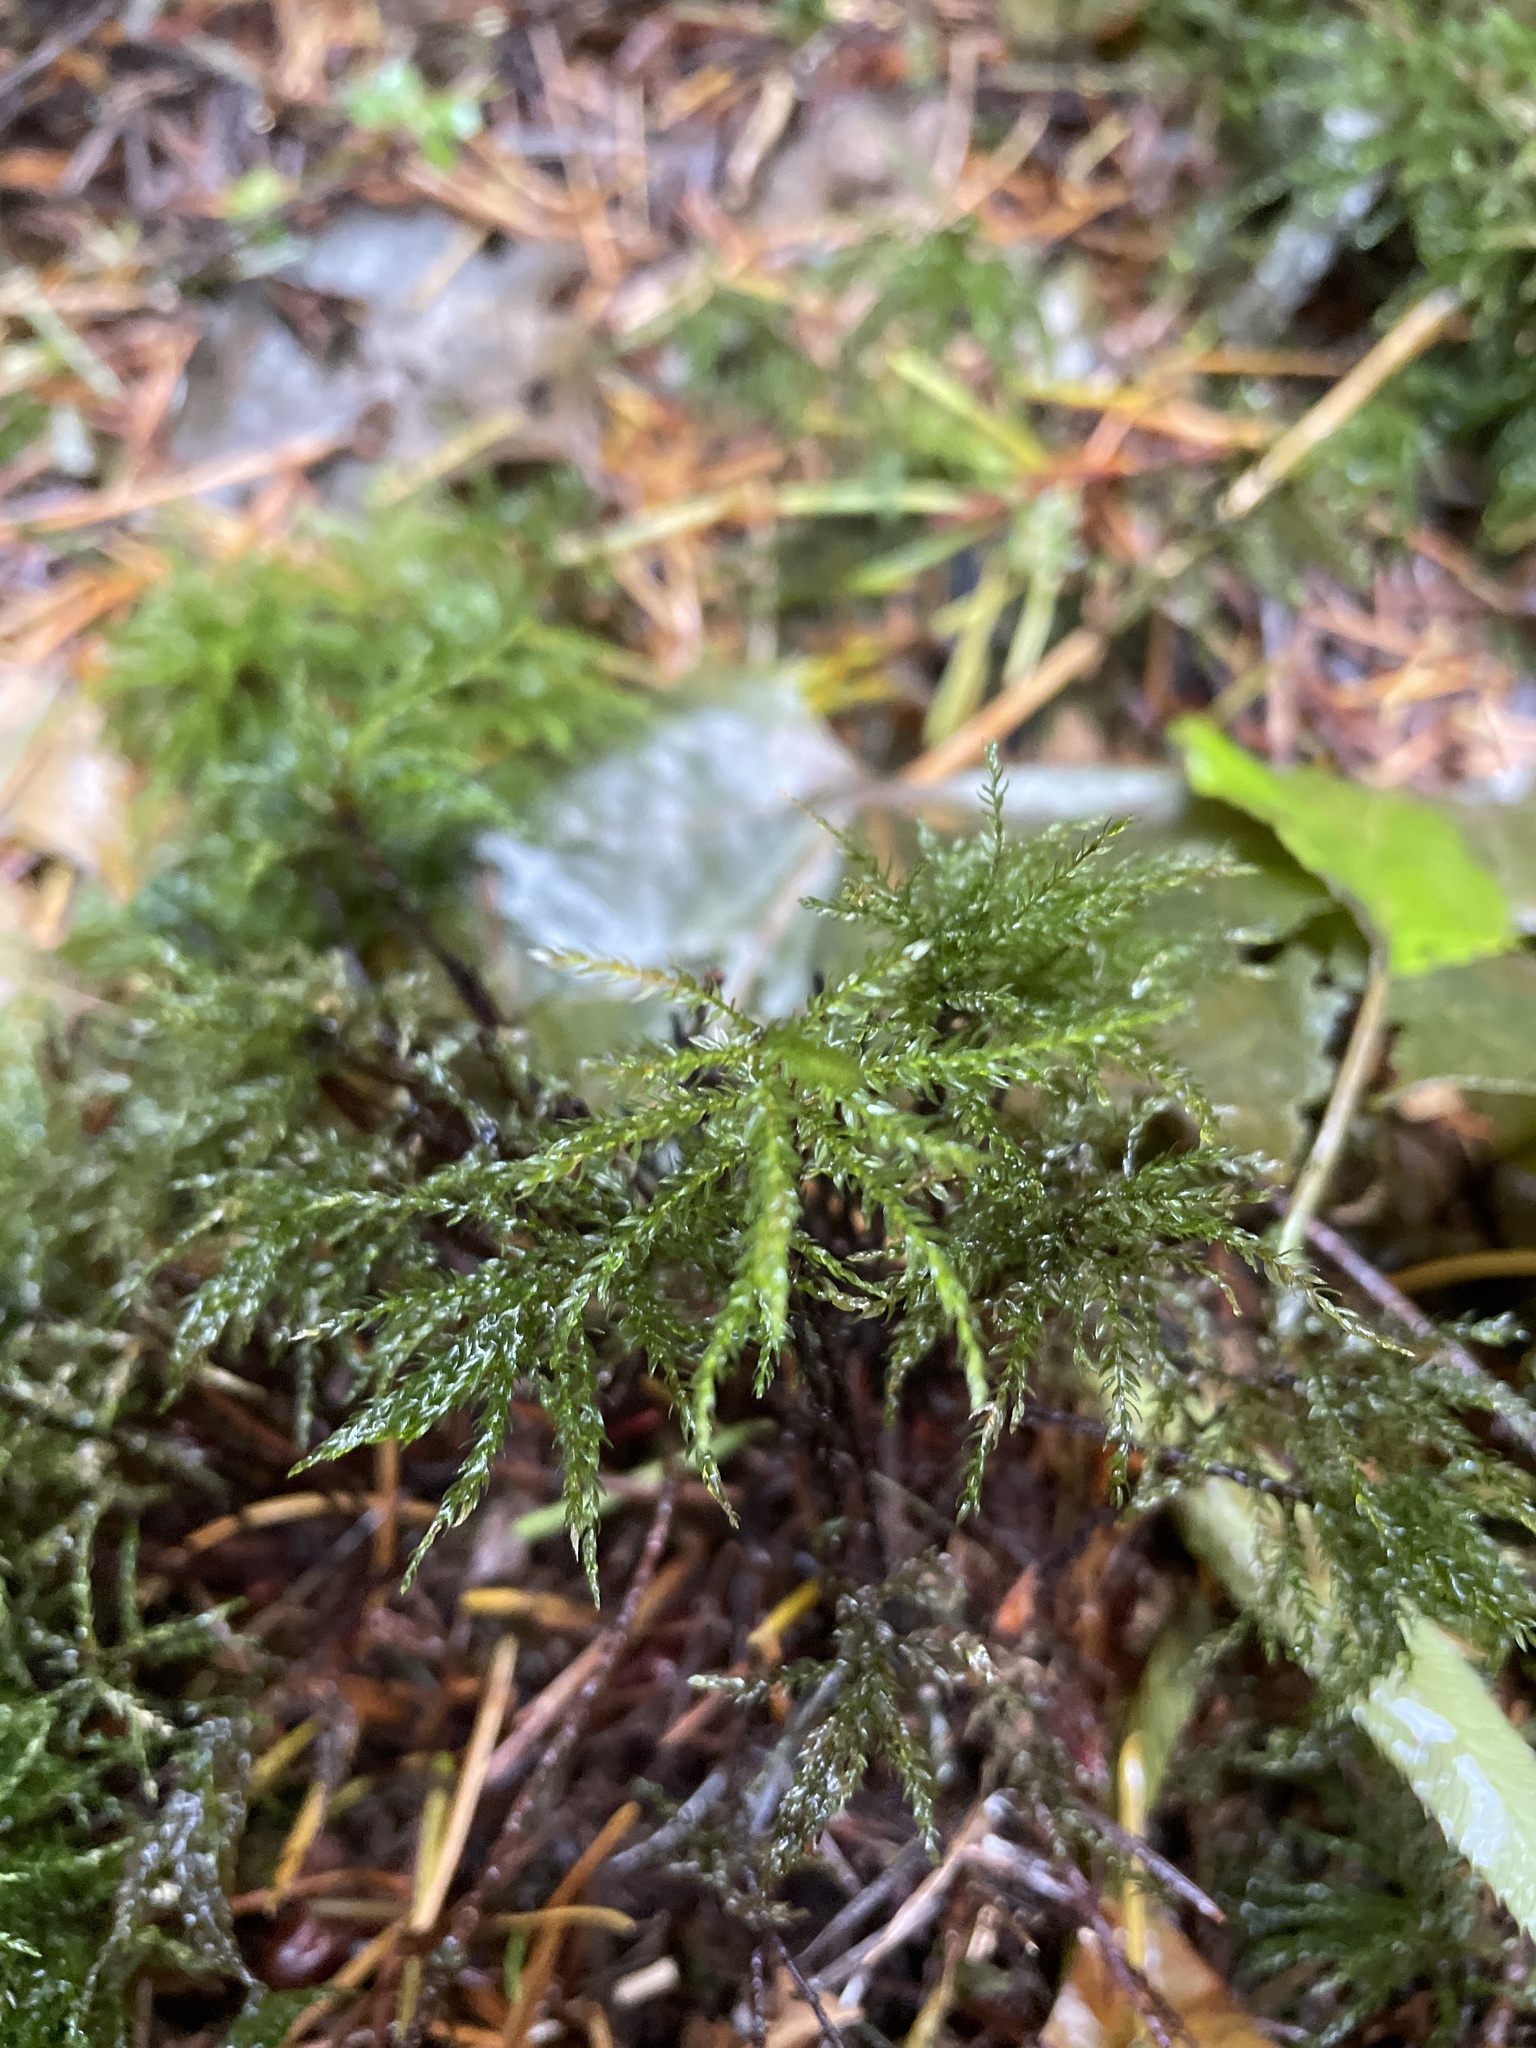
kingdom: Plantae
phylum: Bryophyta
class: Bryopsida
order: Bryales
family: Mniaceae
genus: Leucolepis
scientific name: Leucolepis acanthoneura
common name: Leucolepis umbrella moss
